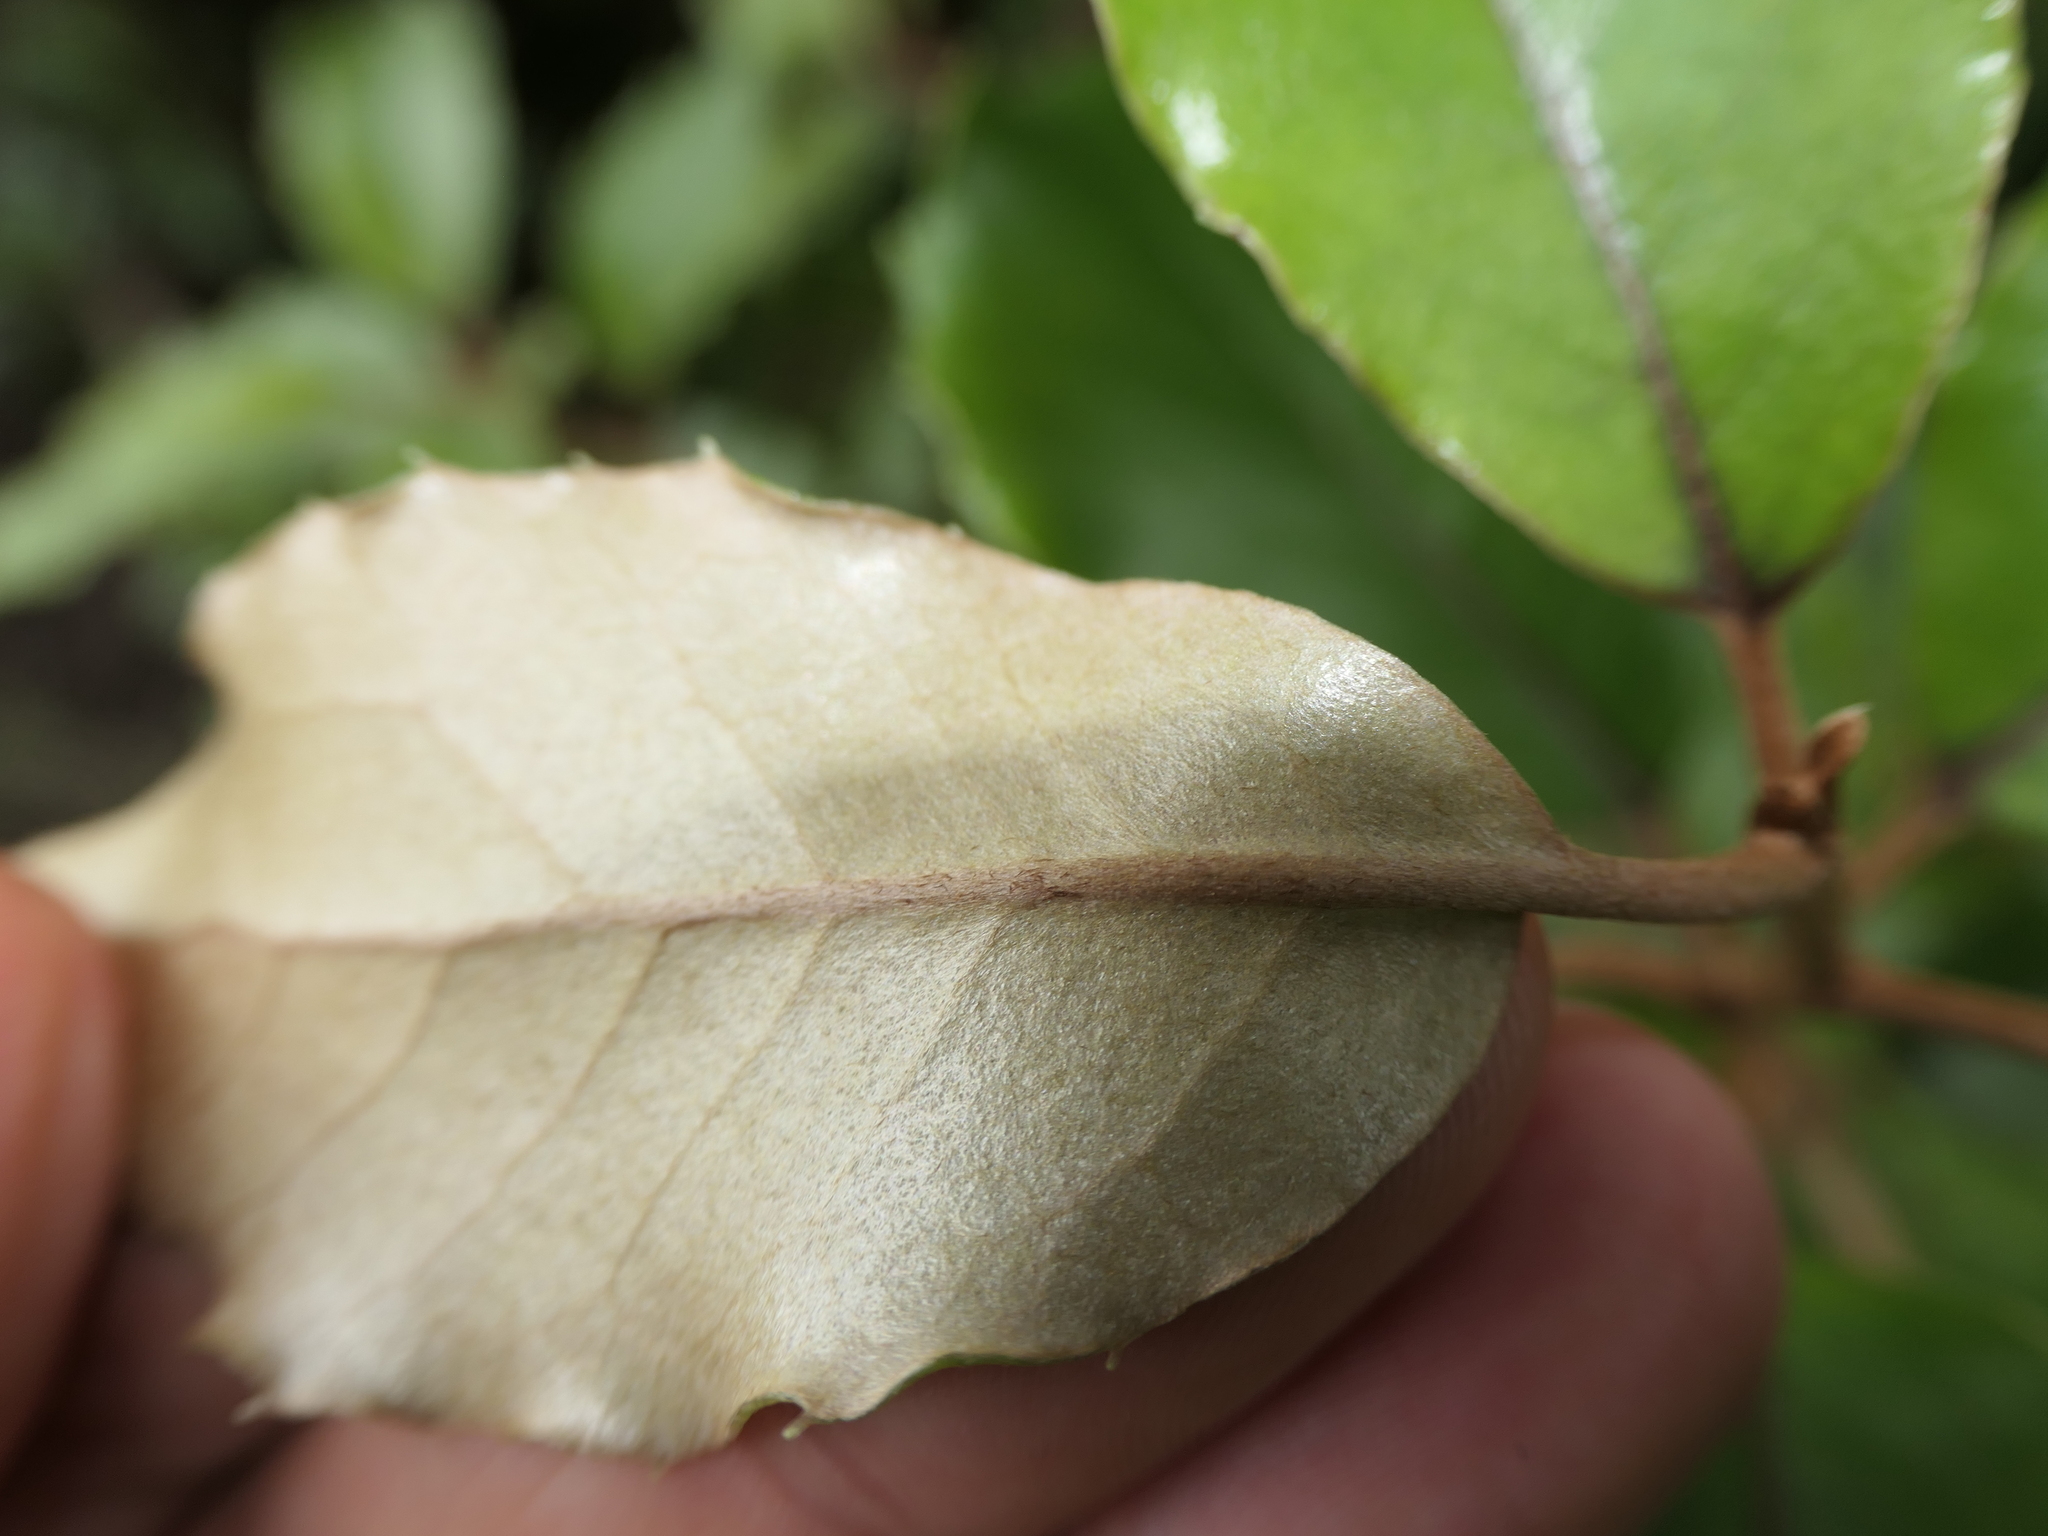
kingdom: Plantae
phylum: Tracheophyta
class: Magnoliopsida
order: Asterales
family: Asteraceae
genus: Olearia
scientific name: Olearia furfuracea
